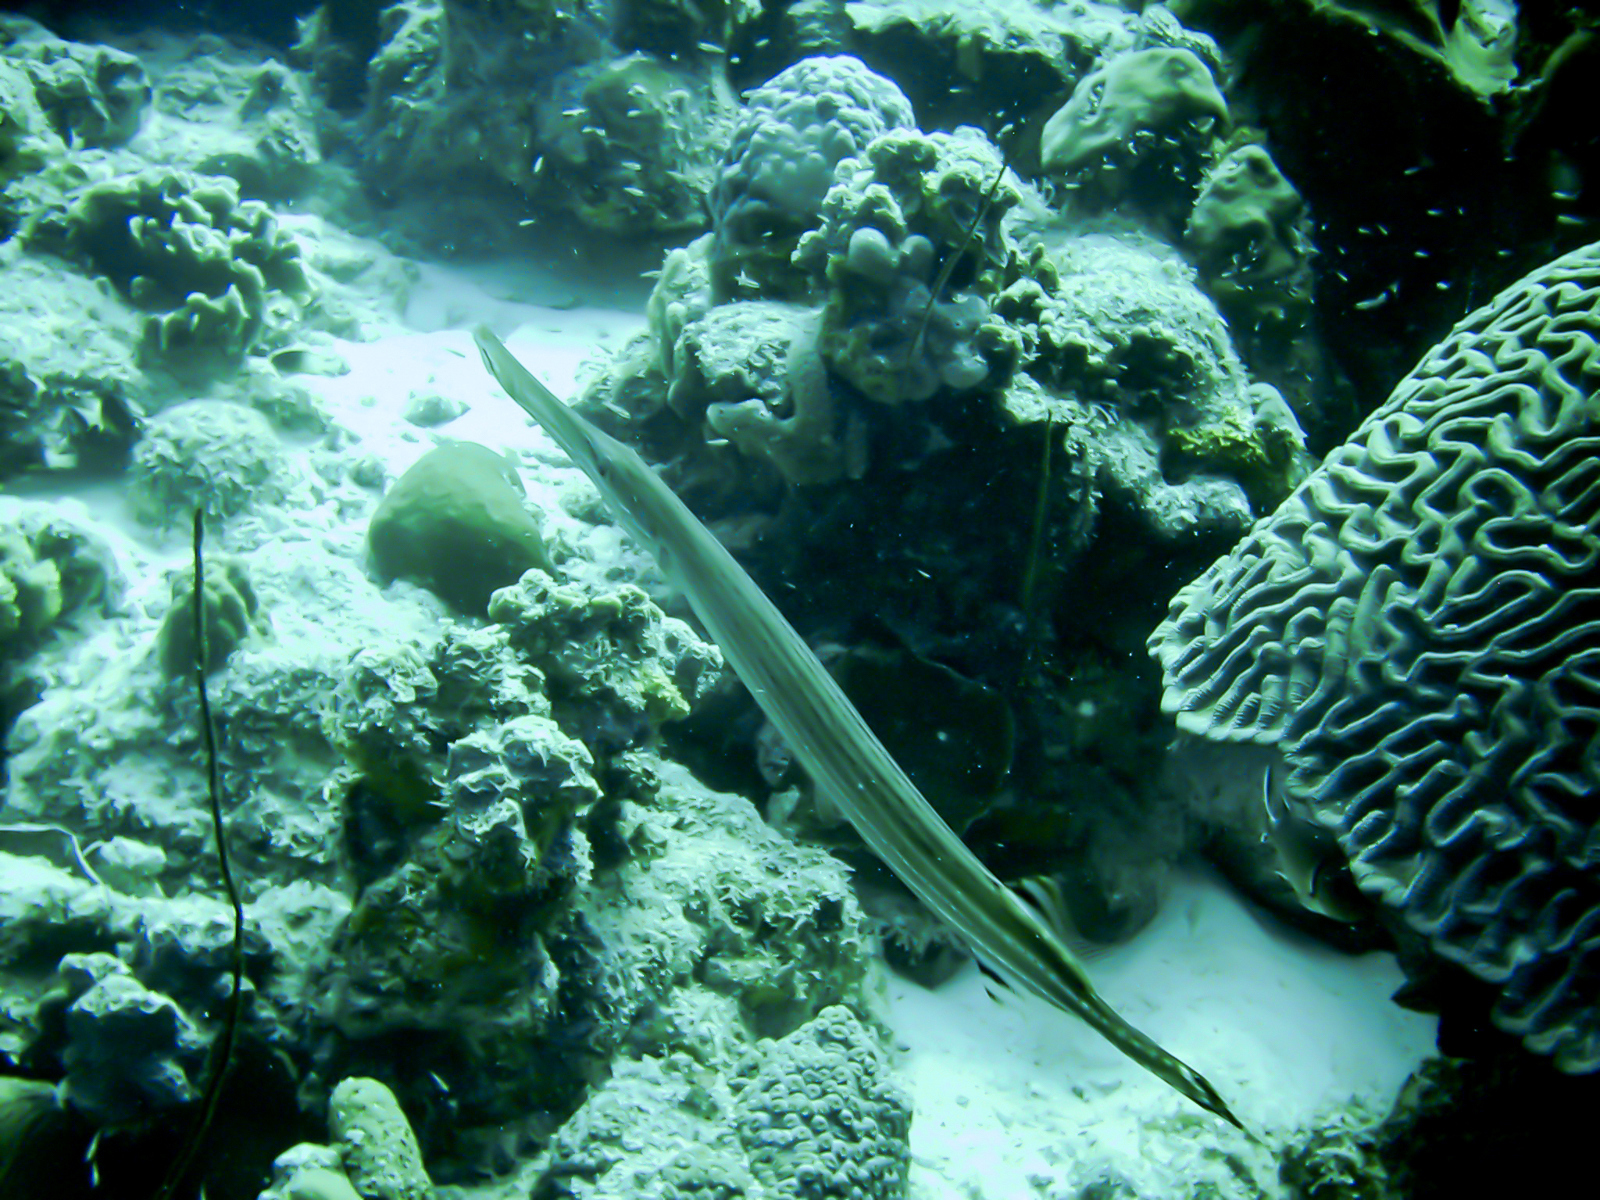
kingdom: Animalia
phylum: Chordata
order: Syngnathiformes
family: Aulostomidae
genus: Aulostomus
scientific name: Aulostomus maculatus
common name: West atlantic trumpetfish
